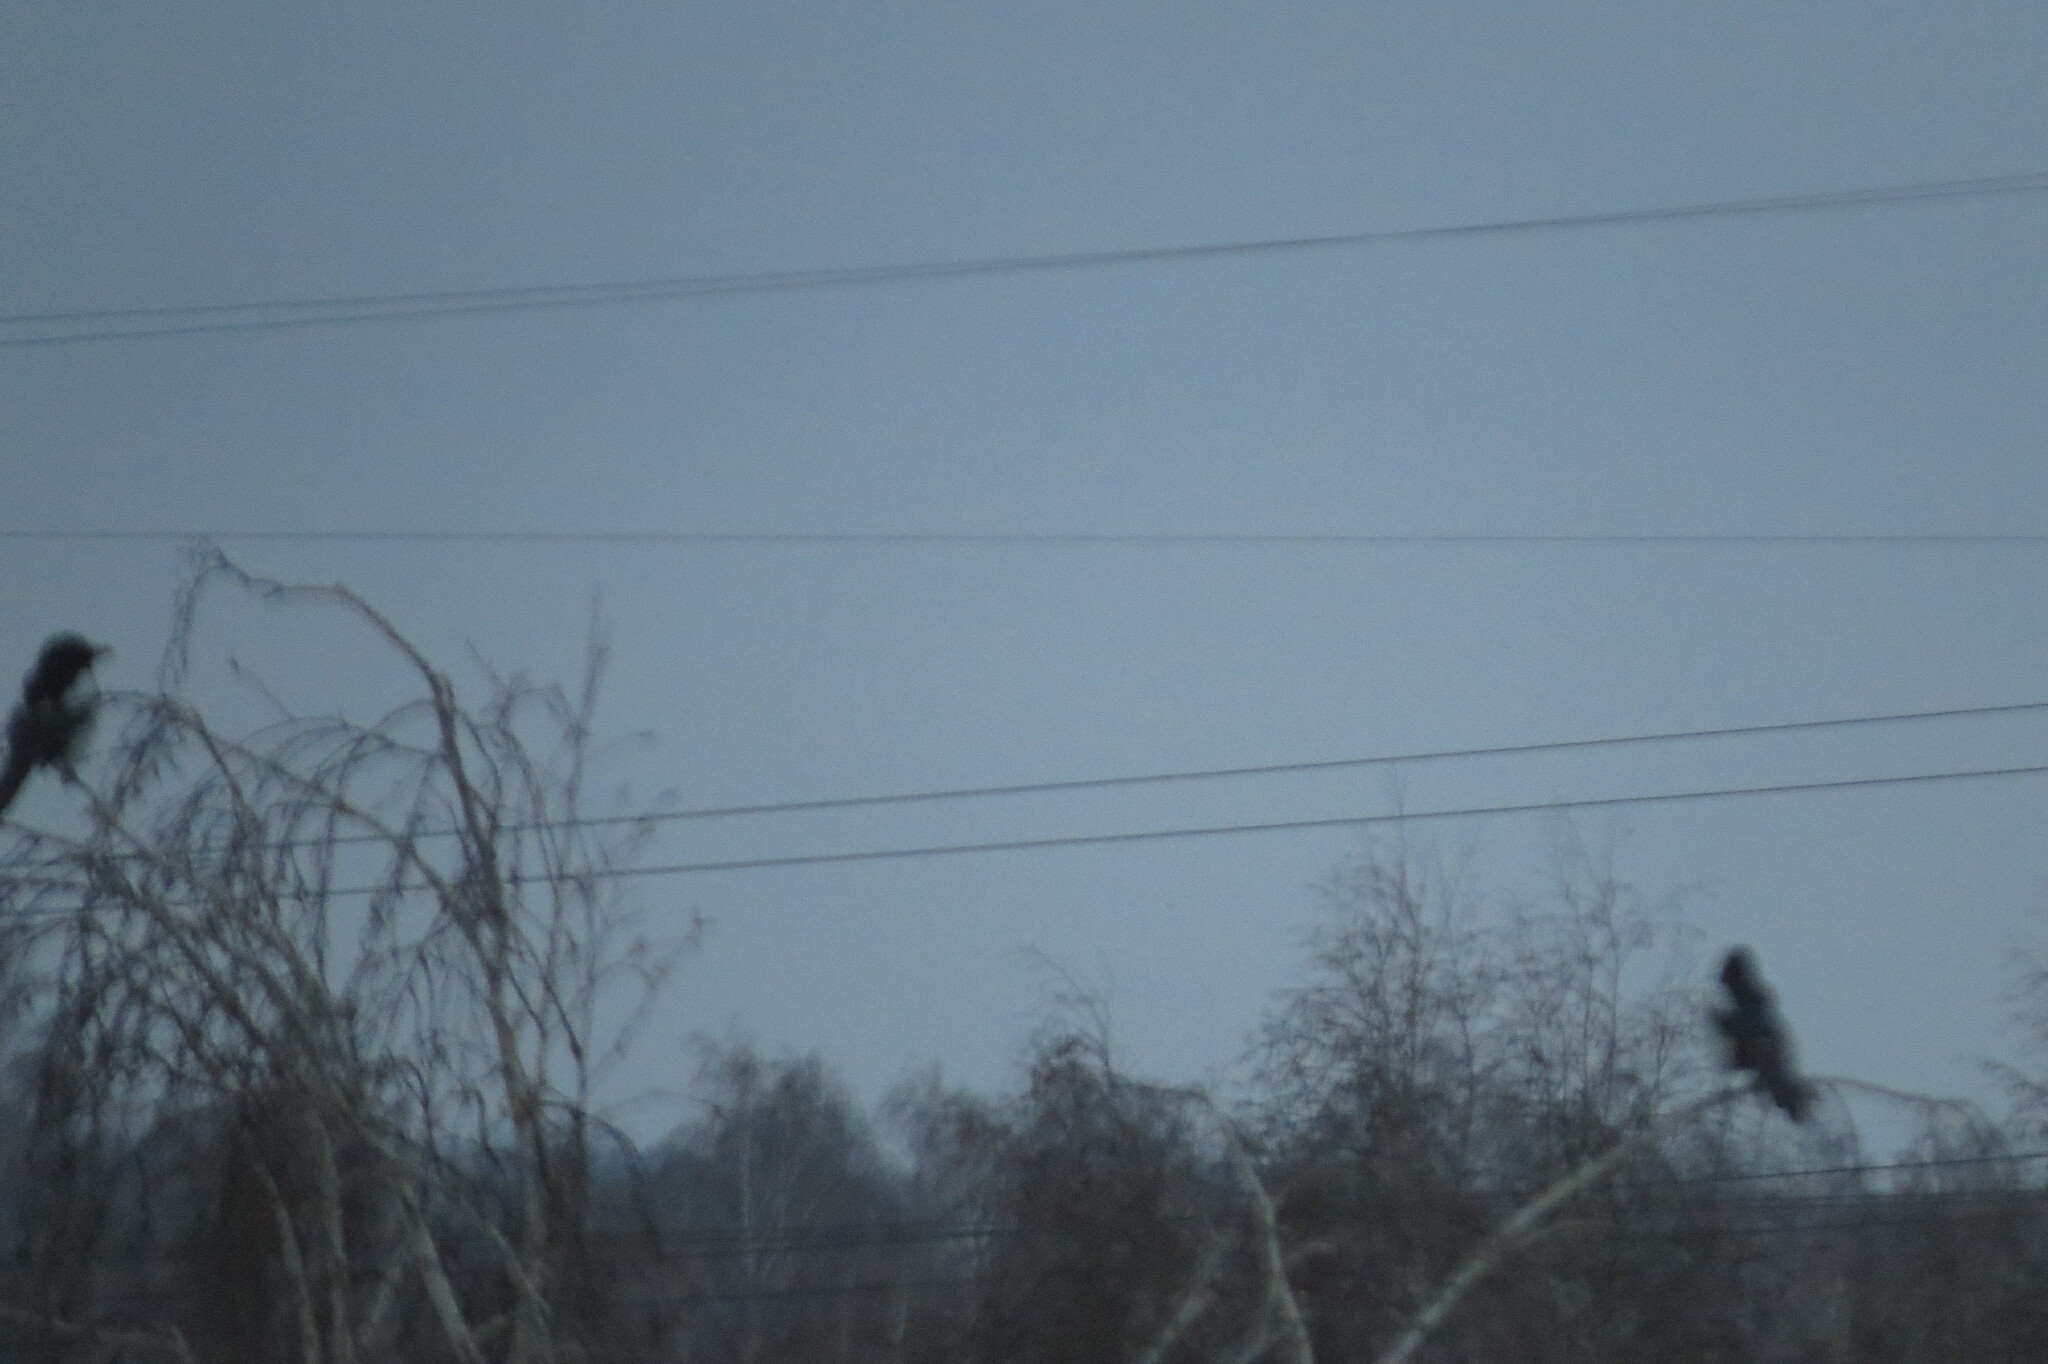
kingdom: Animalia
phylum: Chordata
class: Aves
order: Passeriformes
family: Corvidae
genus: Pica
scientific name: Pica pica
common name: Eurasian magpie
